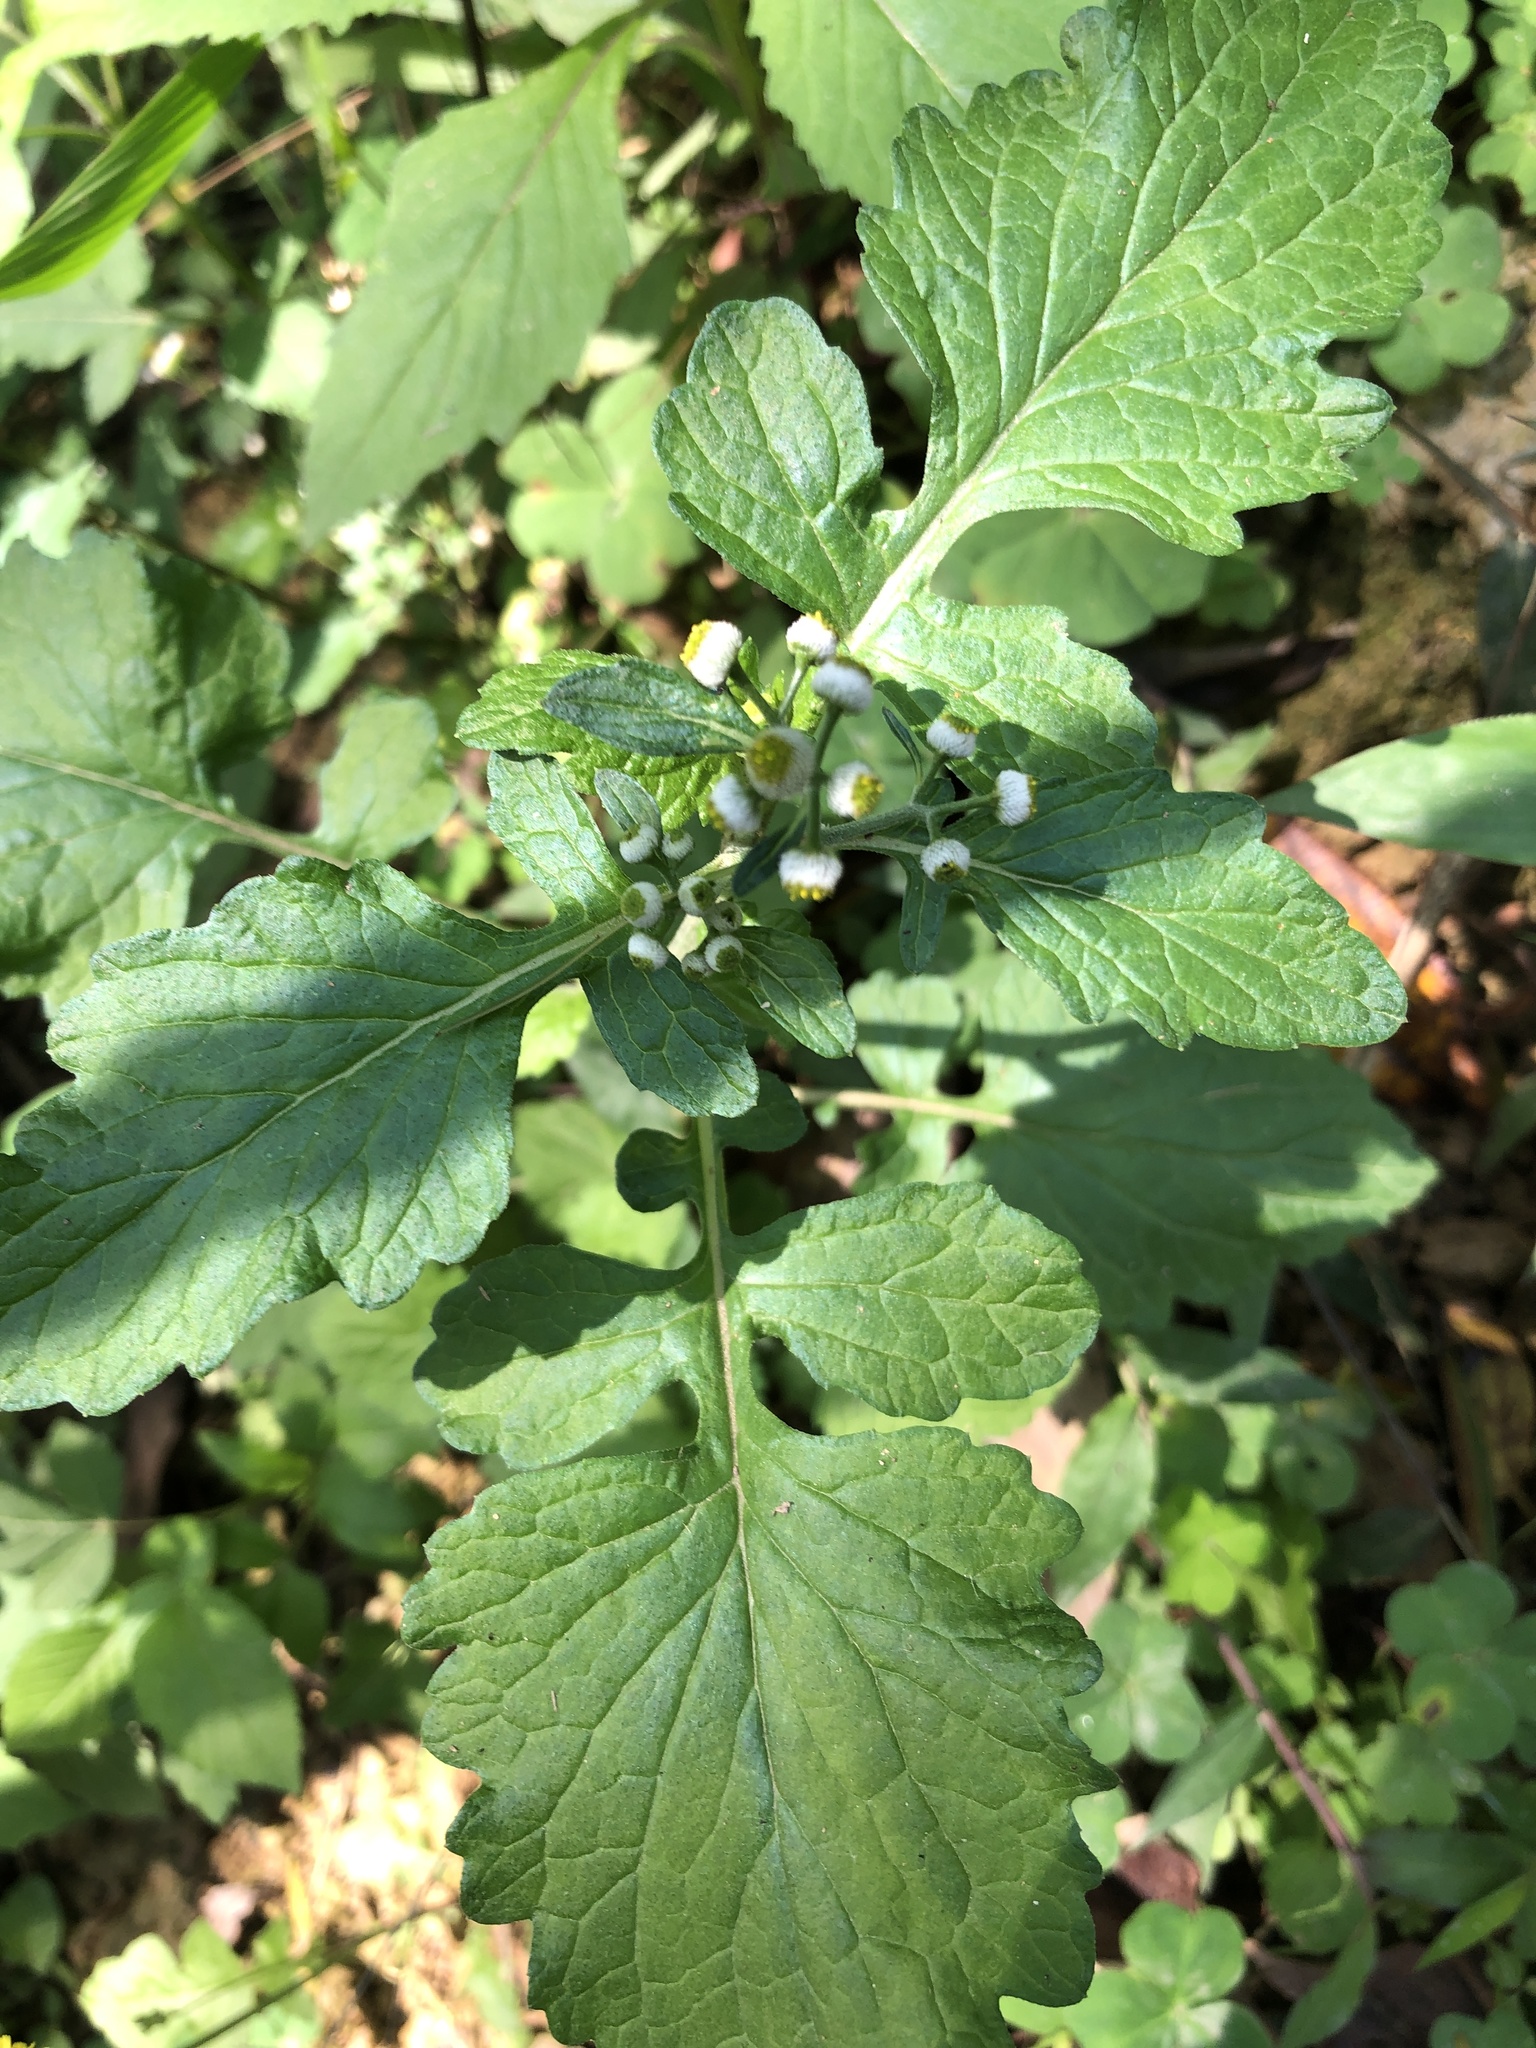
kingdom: Plantae
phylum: Tracheophyta
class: Magnoliopsida
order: Asterales
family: Asteraceae
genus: Dichrocephala
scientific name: Dichrocephala integrifolia
